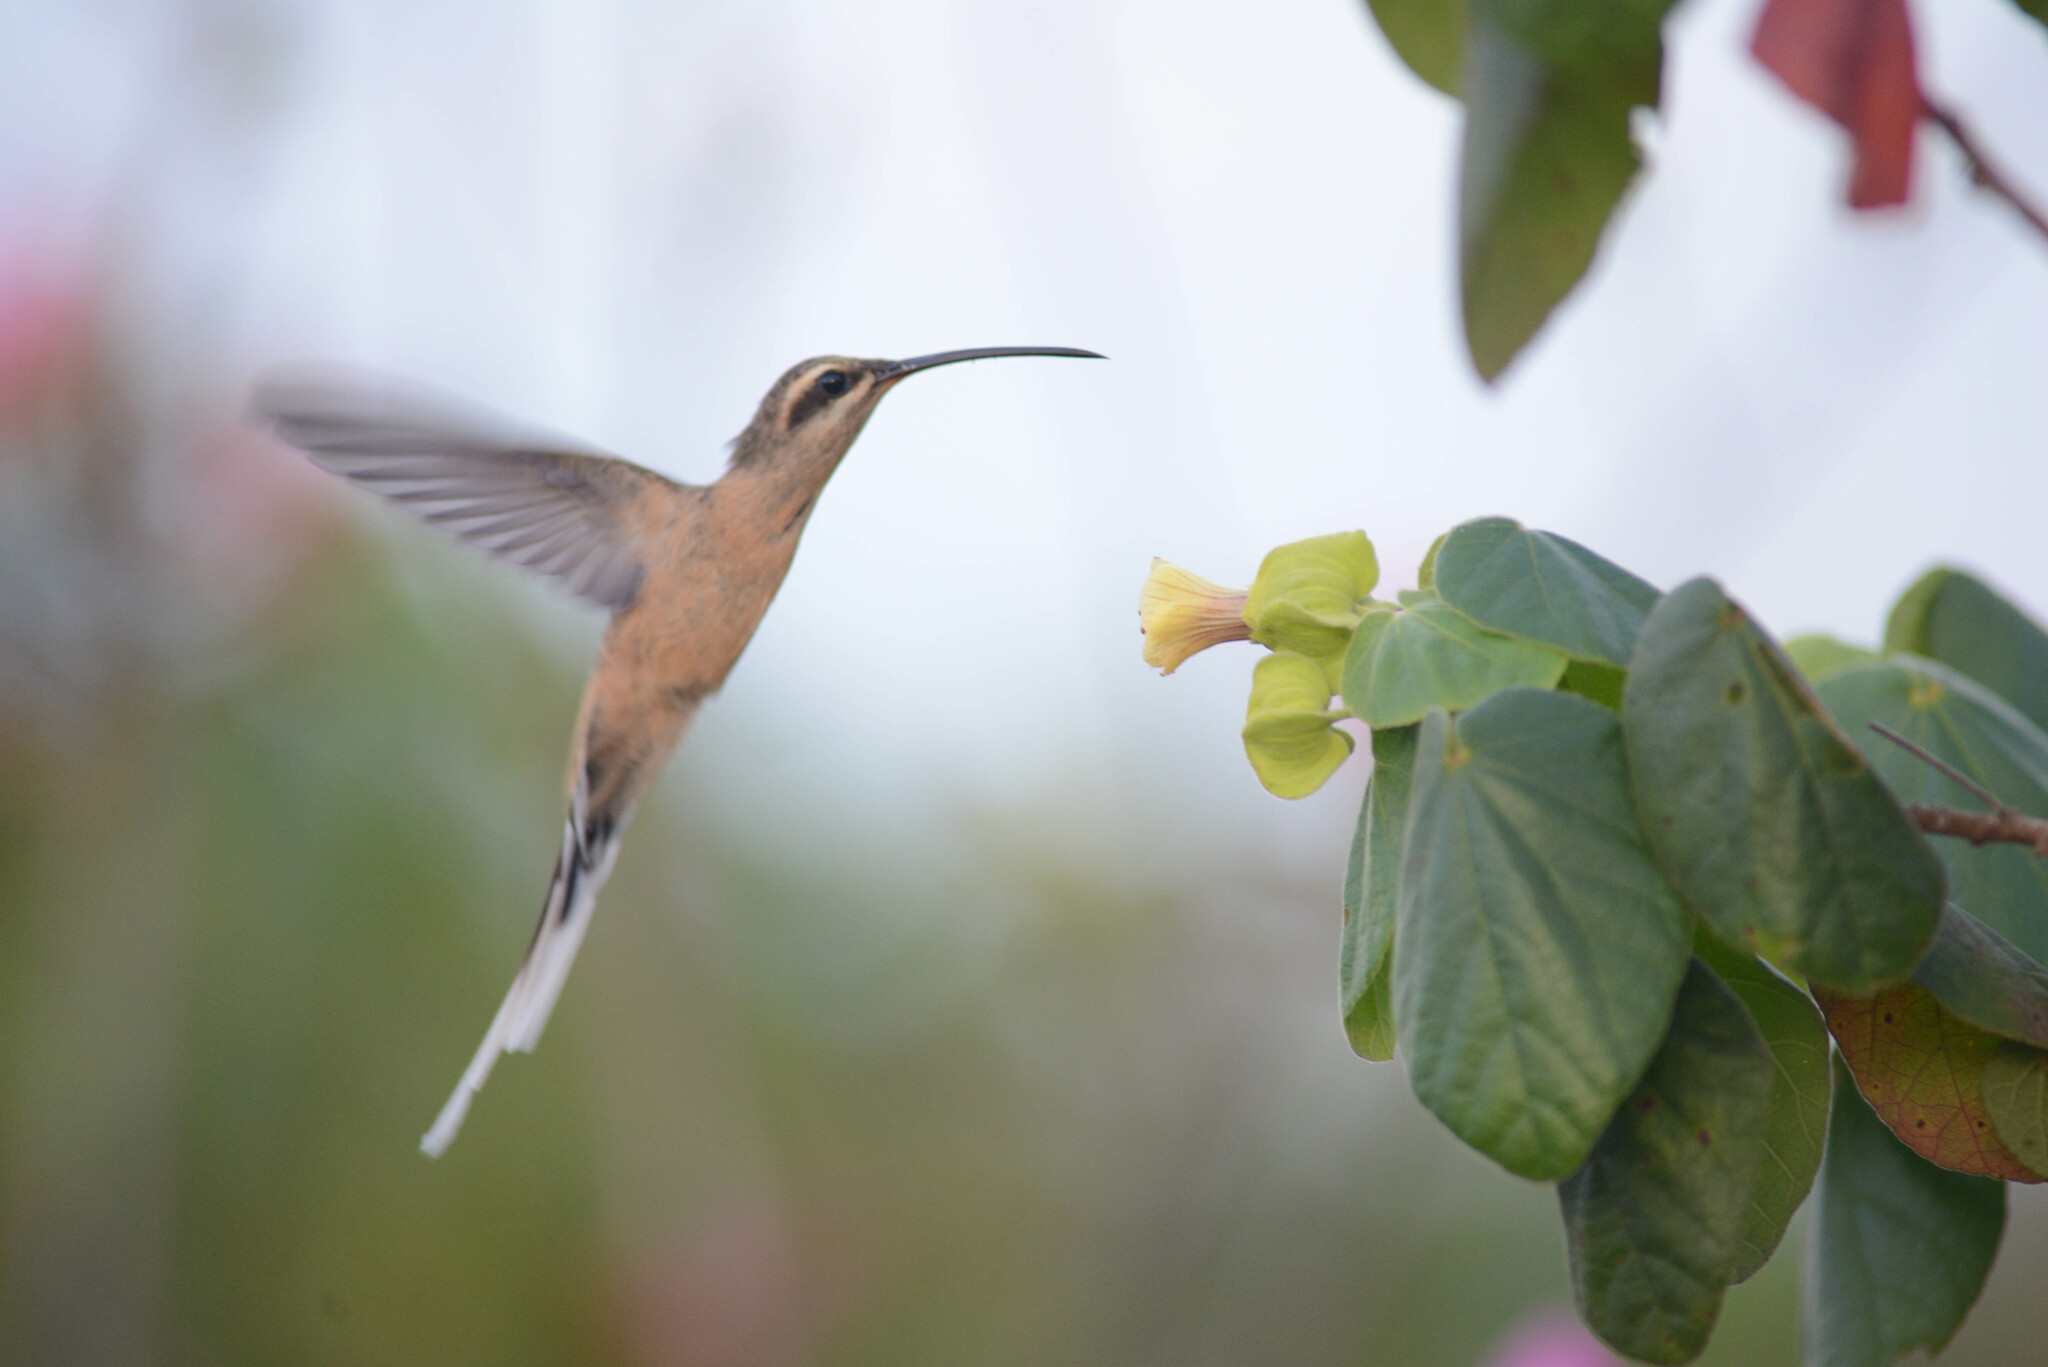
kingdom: Plantae
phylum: Tracheophyta
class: Magnoliopsida
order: Malvales
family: Malvaceae
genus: Pavonia
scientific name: Pavonia grazielae
